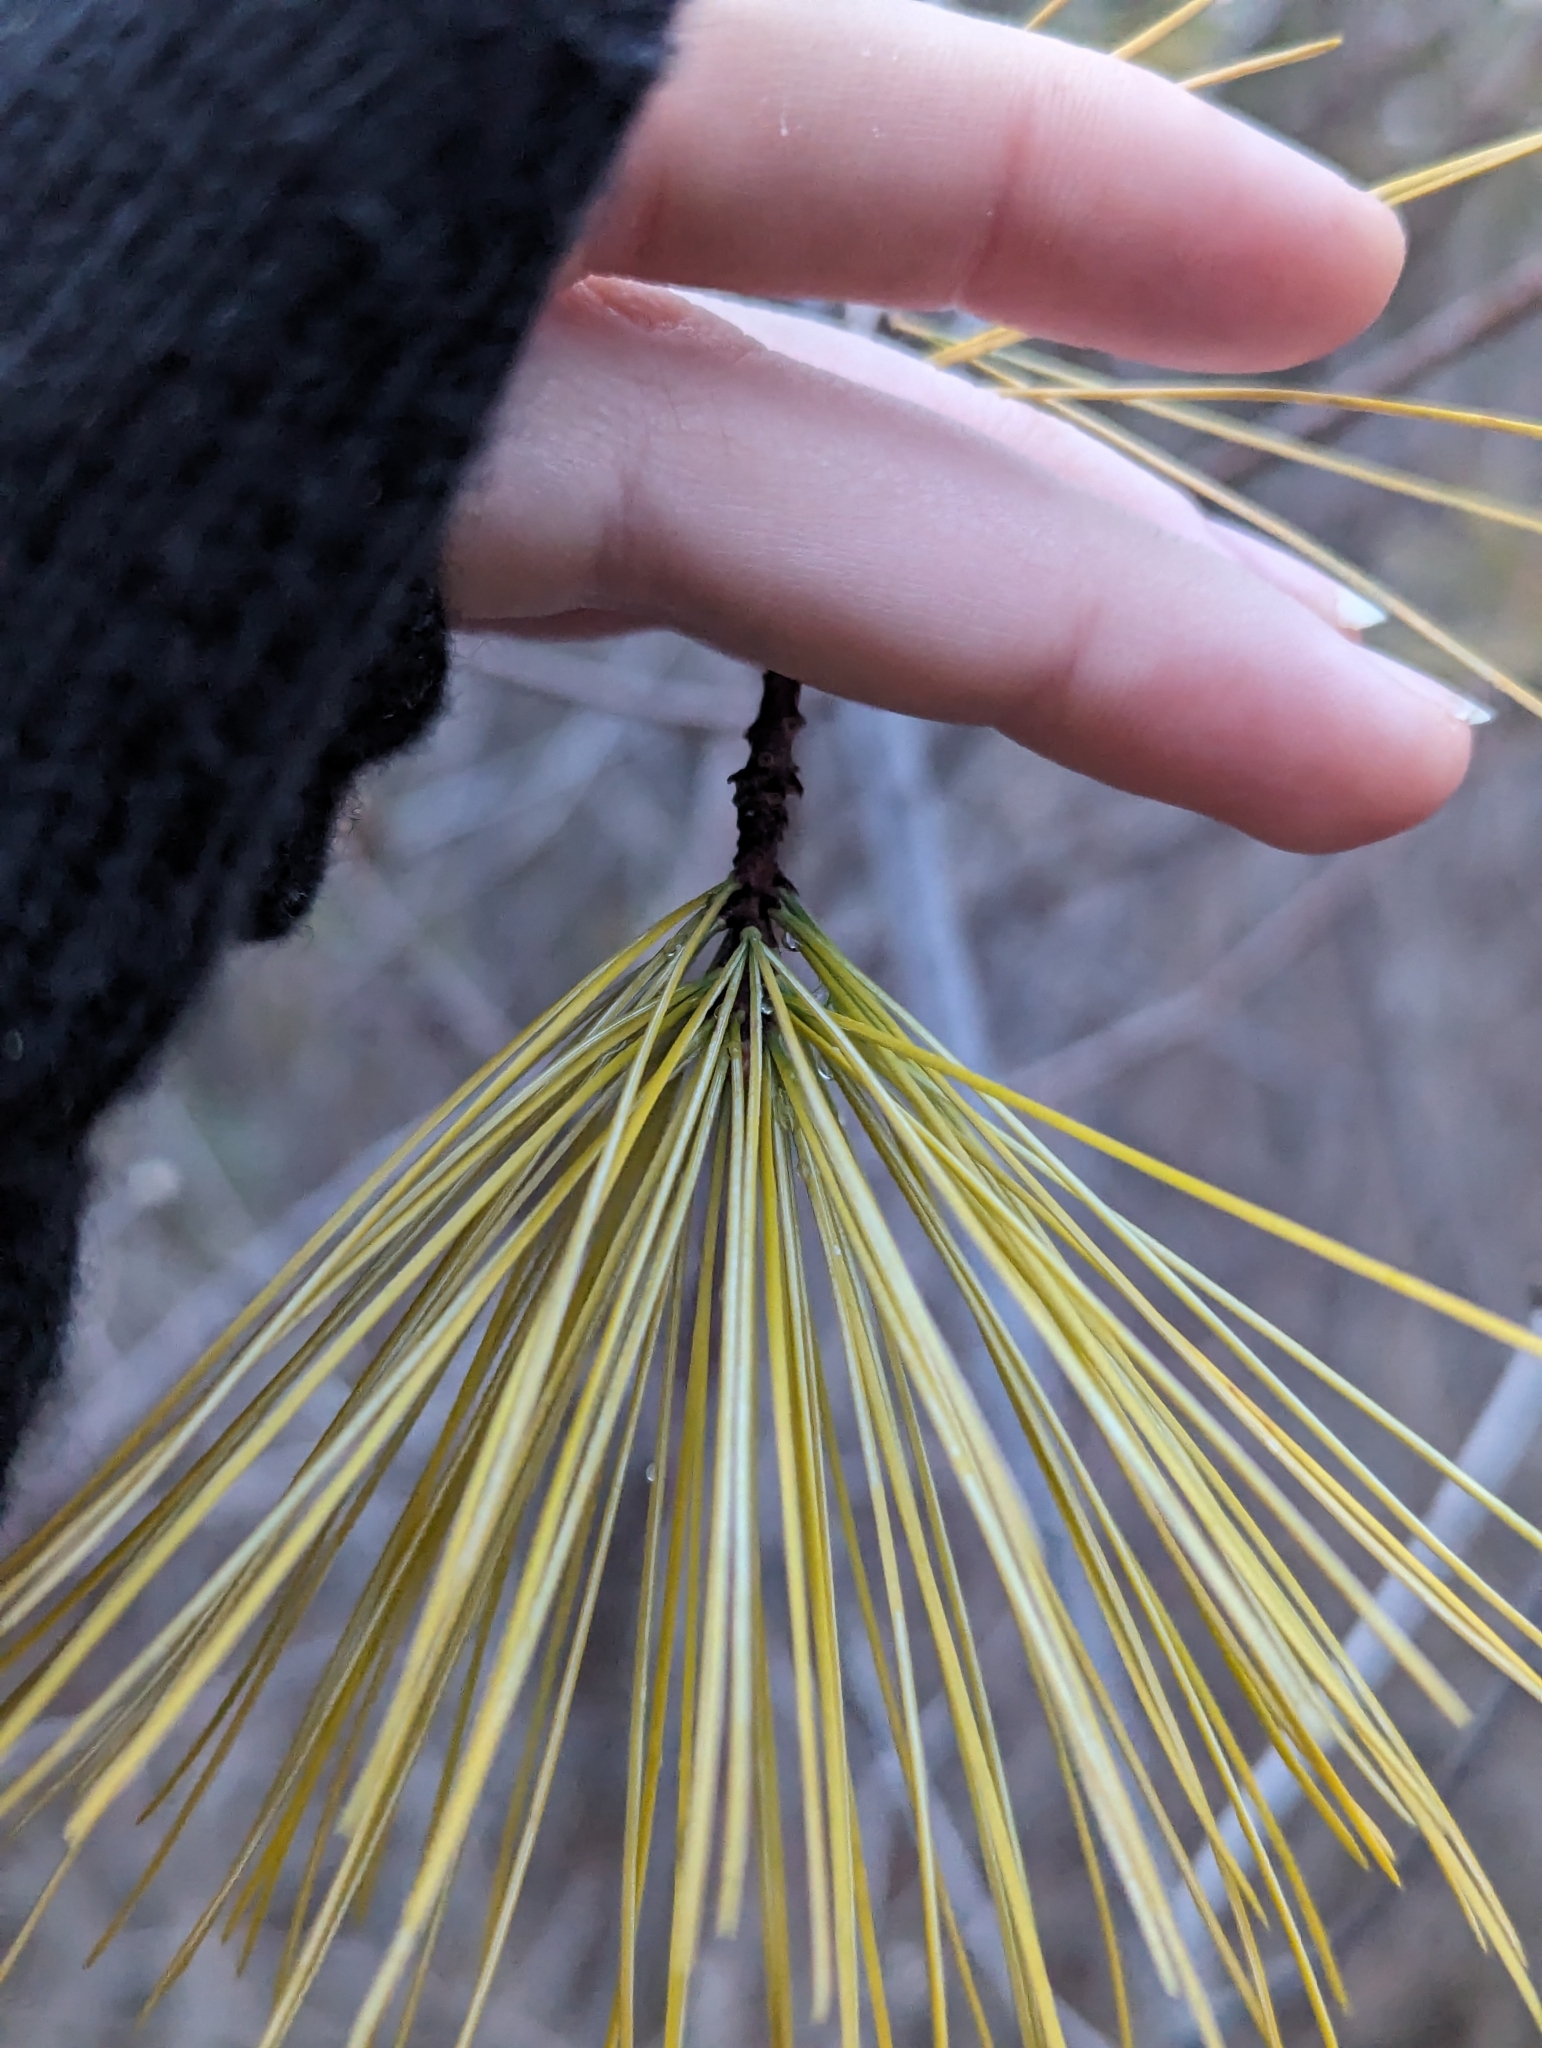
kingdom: Plantae
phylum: Tracheophyta
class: Pinopsida
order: Pinales
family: Pinaceae
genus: Pinus
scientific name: Pinus strobus
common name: Weymouth pine
